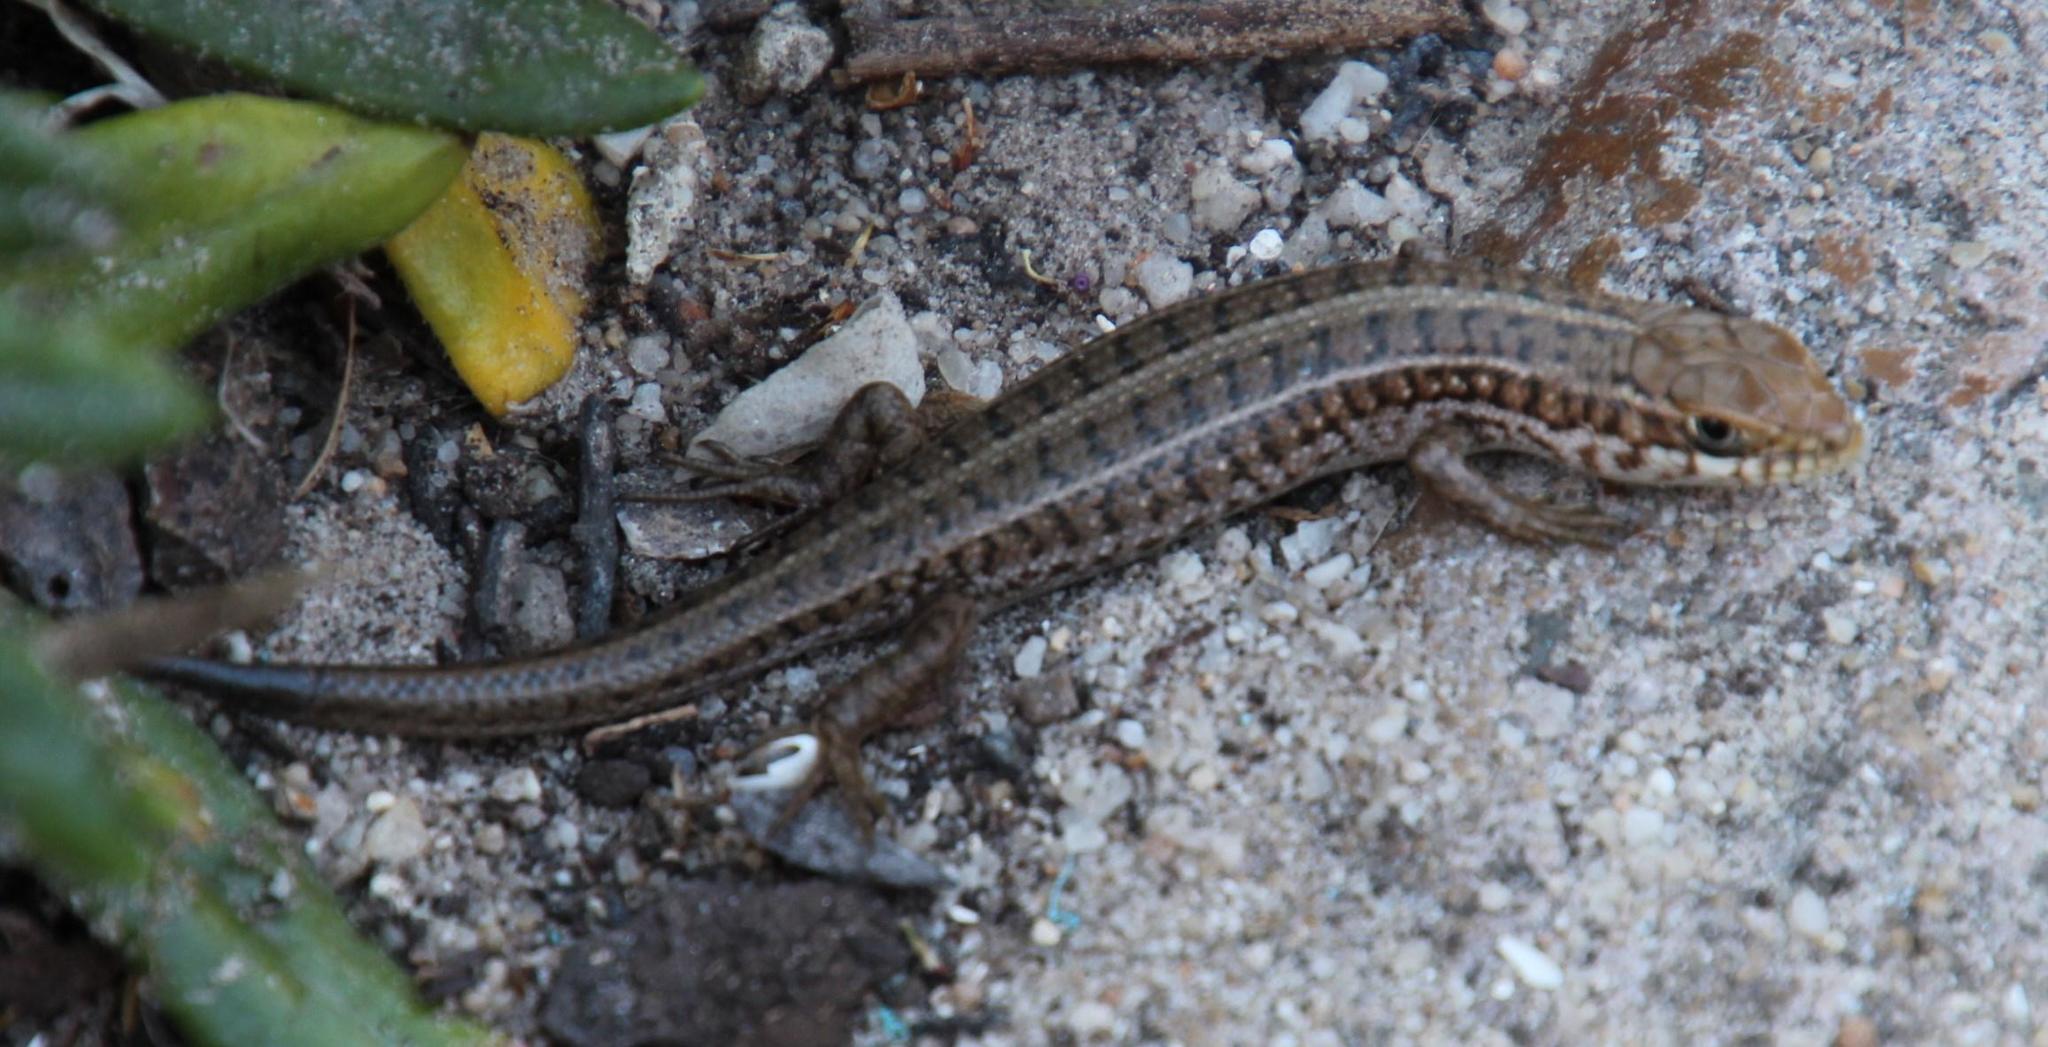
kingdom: Animalia
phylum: Chordata
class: Squamata
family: Scincidae
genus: Trachylepis
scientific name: Trachylepis capensis
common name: Cape skink
